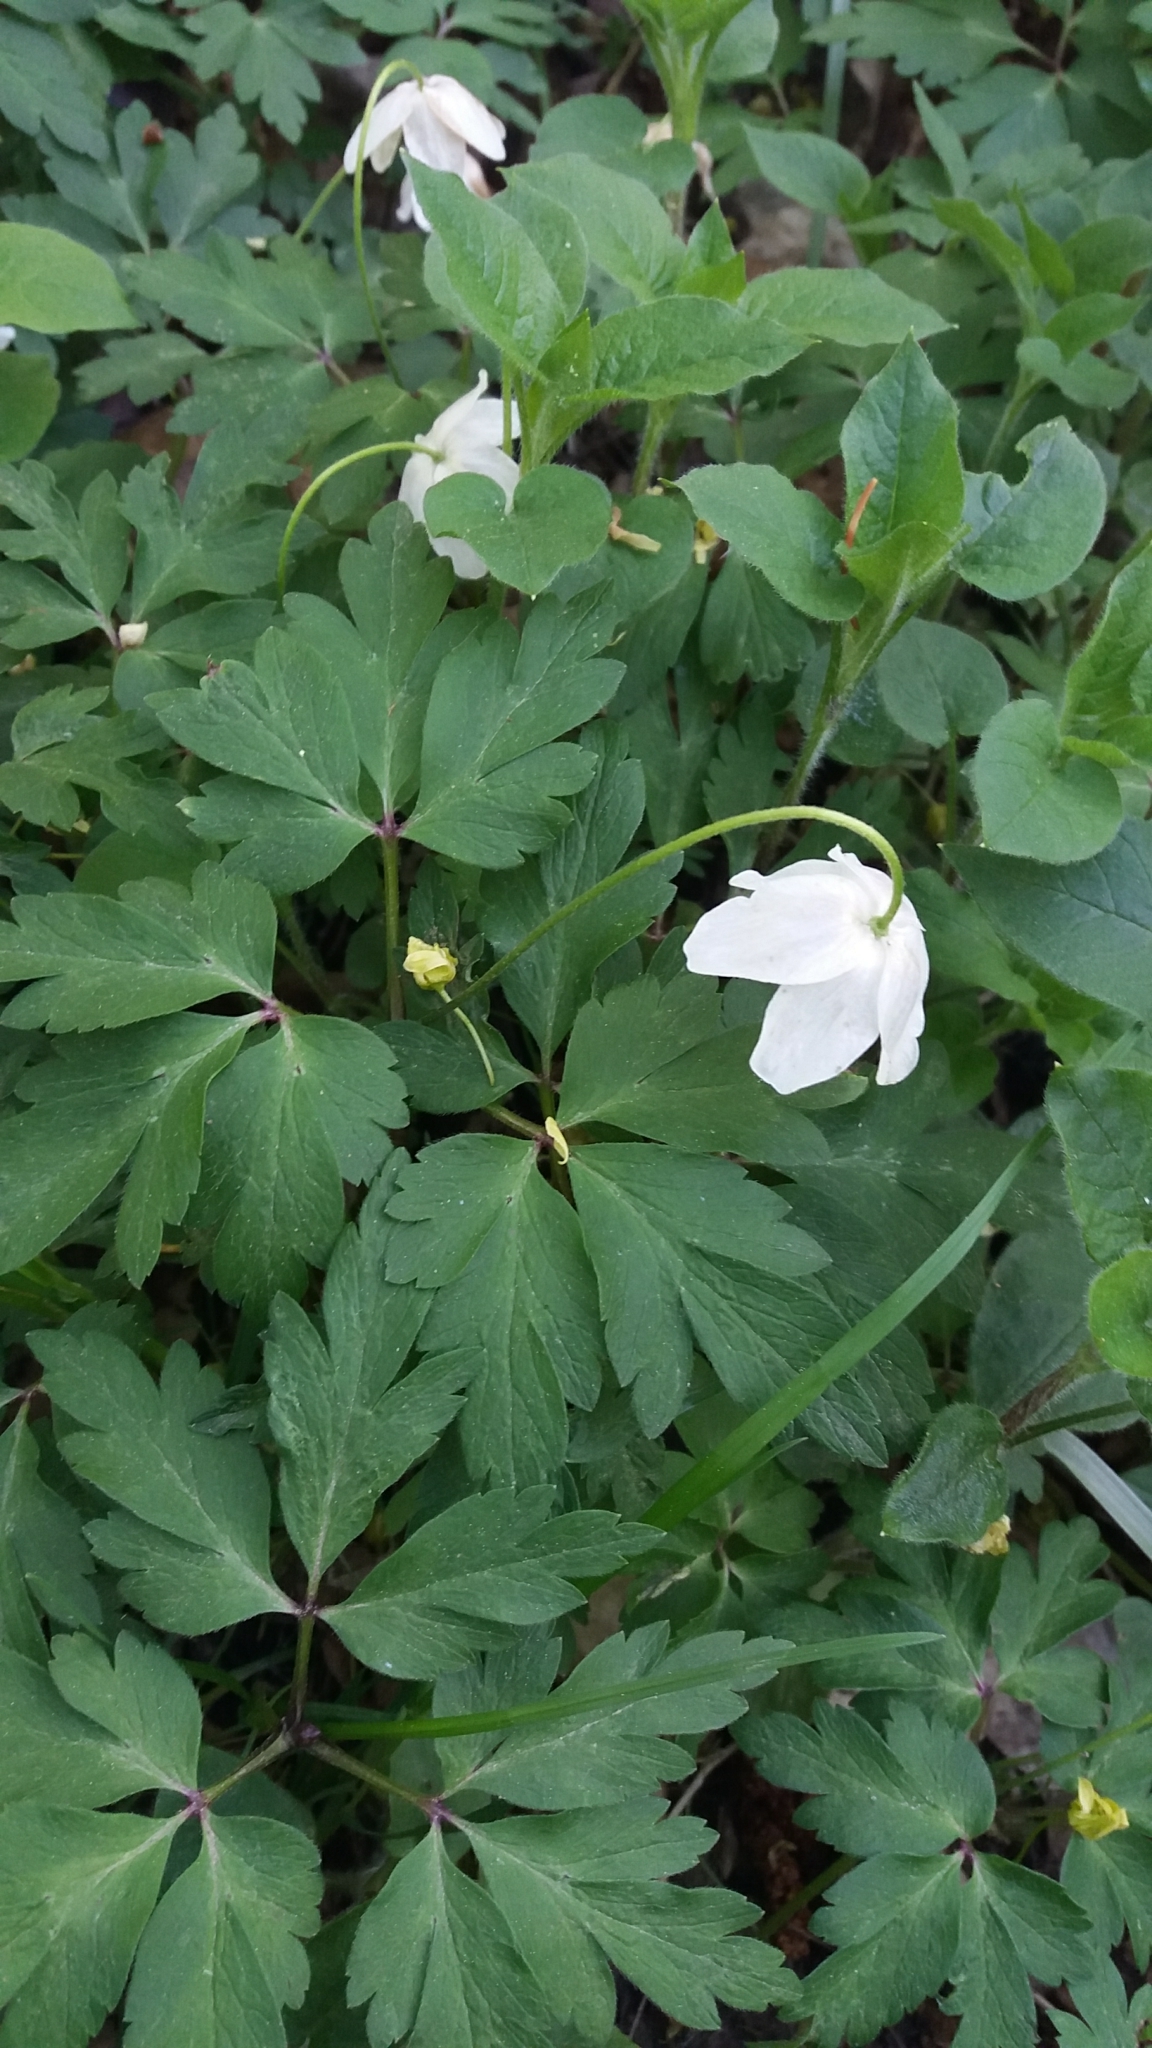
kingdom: Plantae
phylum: Tracheophyta
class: Magnoliopsida
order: Ranunculales
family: Ranunculaceae
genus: Anemone
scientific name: Anemone nemorosa
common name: Wood anemone
